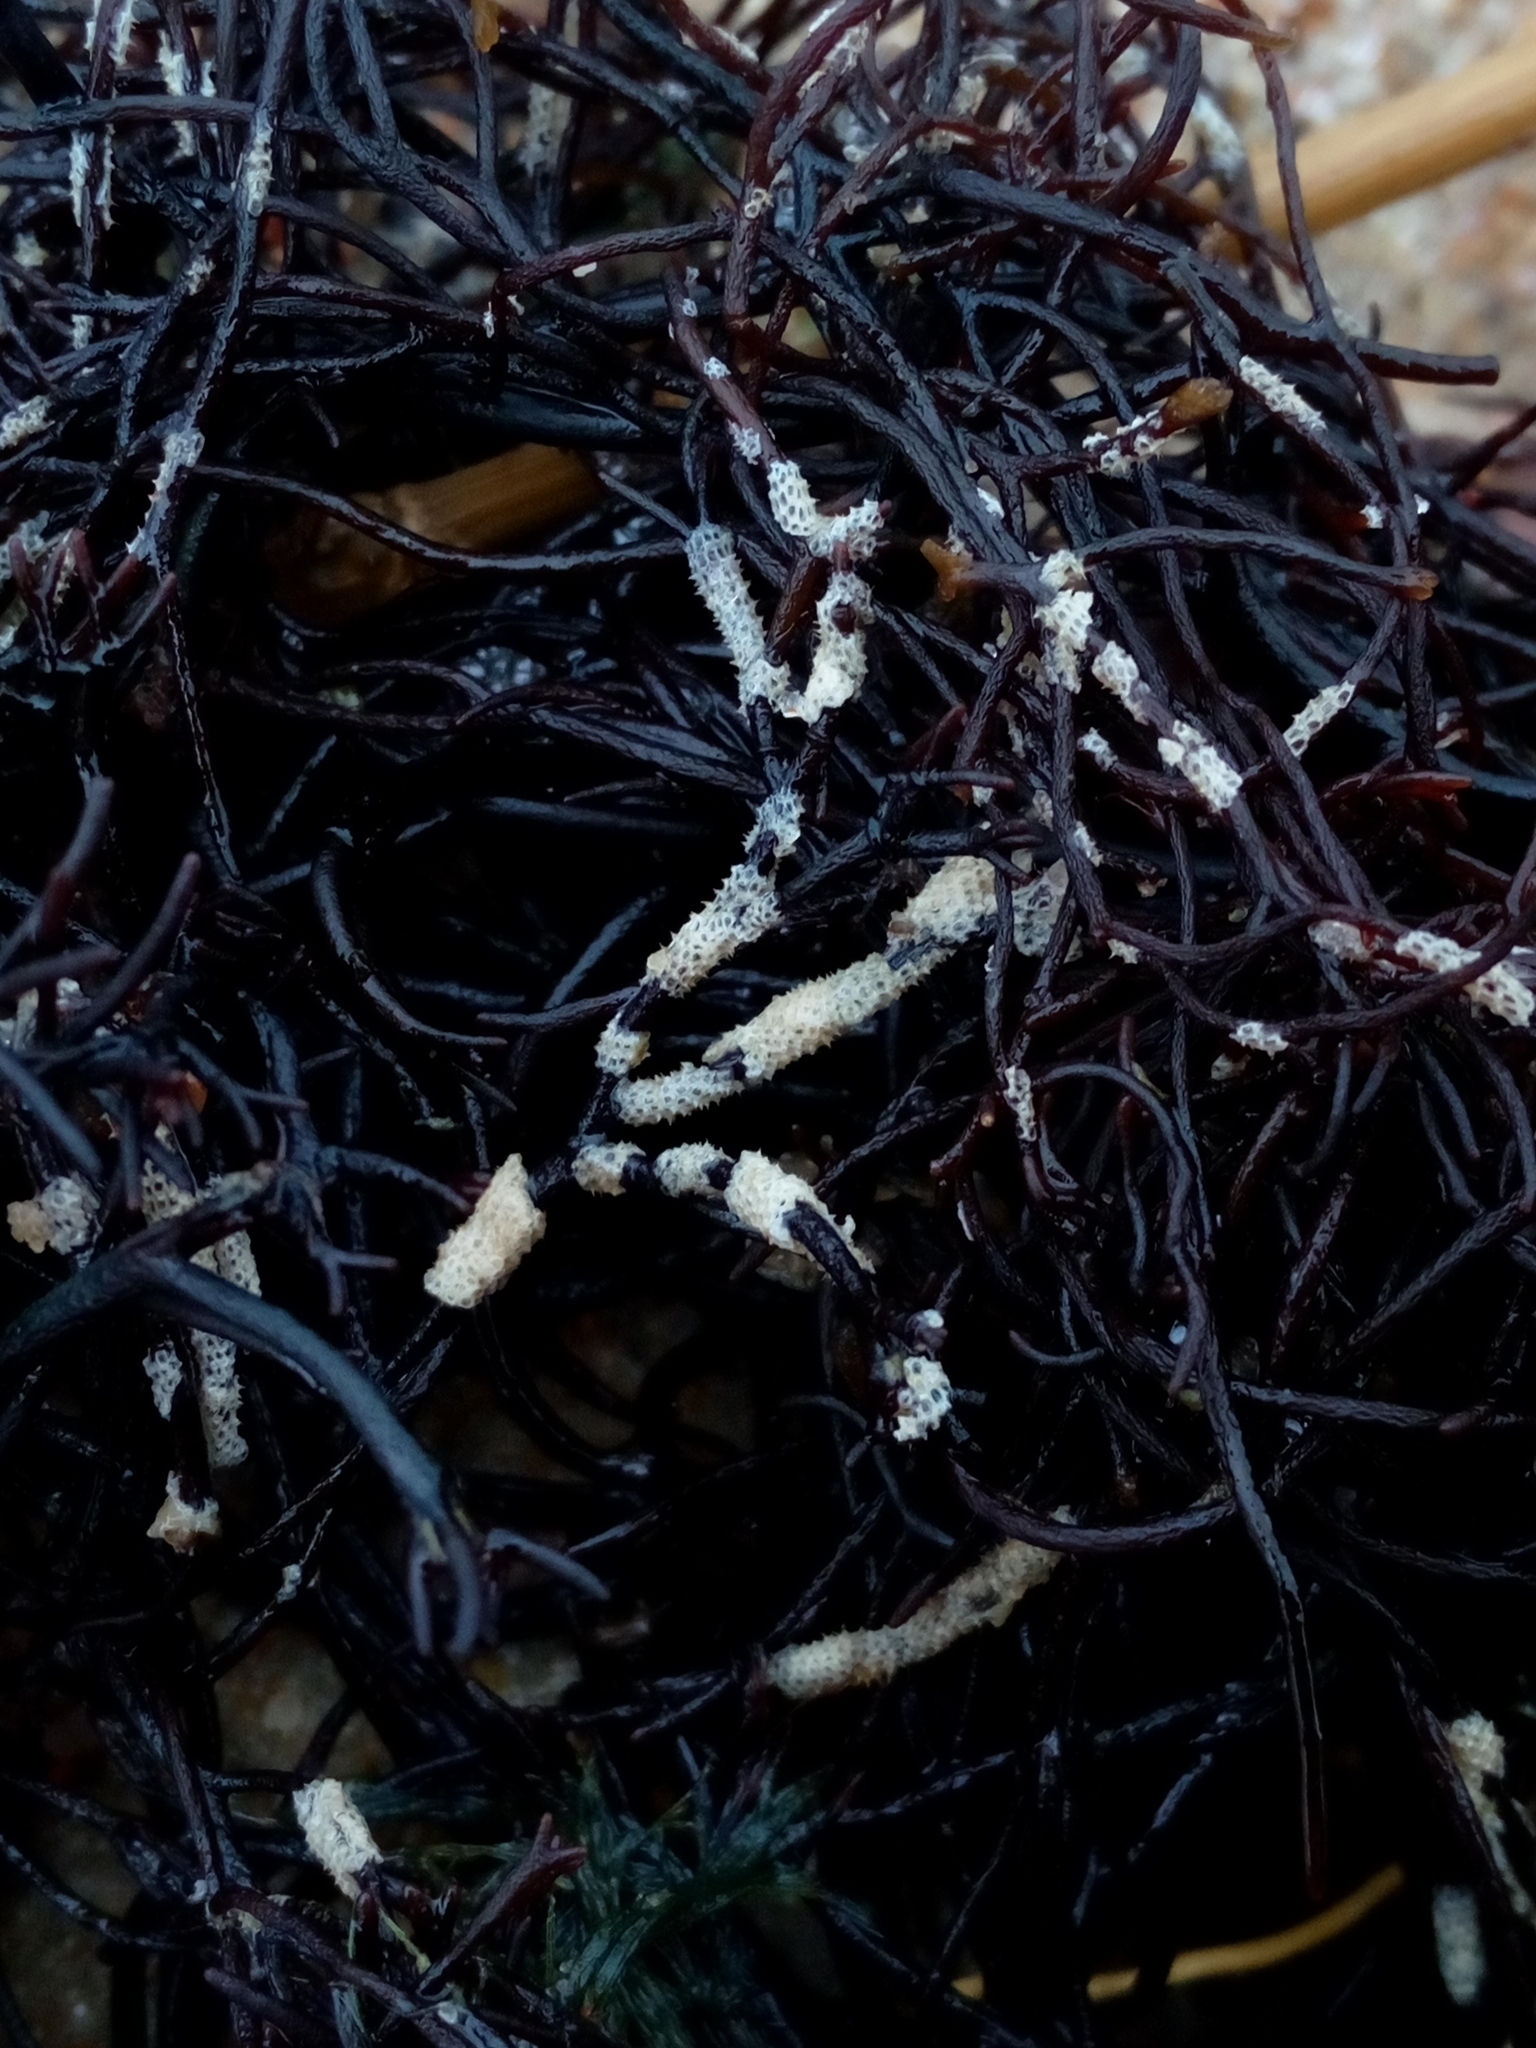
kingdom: Animalia
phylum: Bryozoa
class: Gymnolaemata
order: Cheilostomatida
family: Electridae
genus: Electra
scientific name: Electra pilosa
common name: Hairy sea-mat
